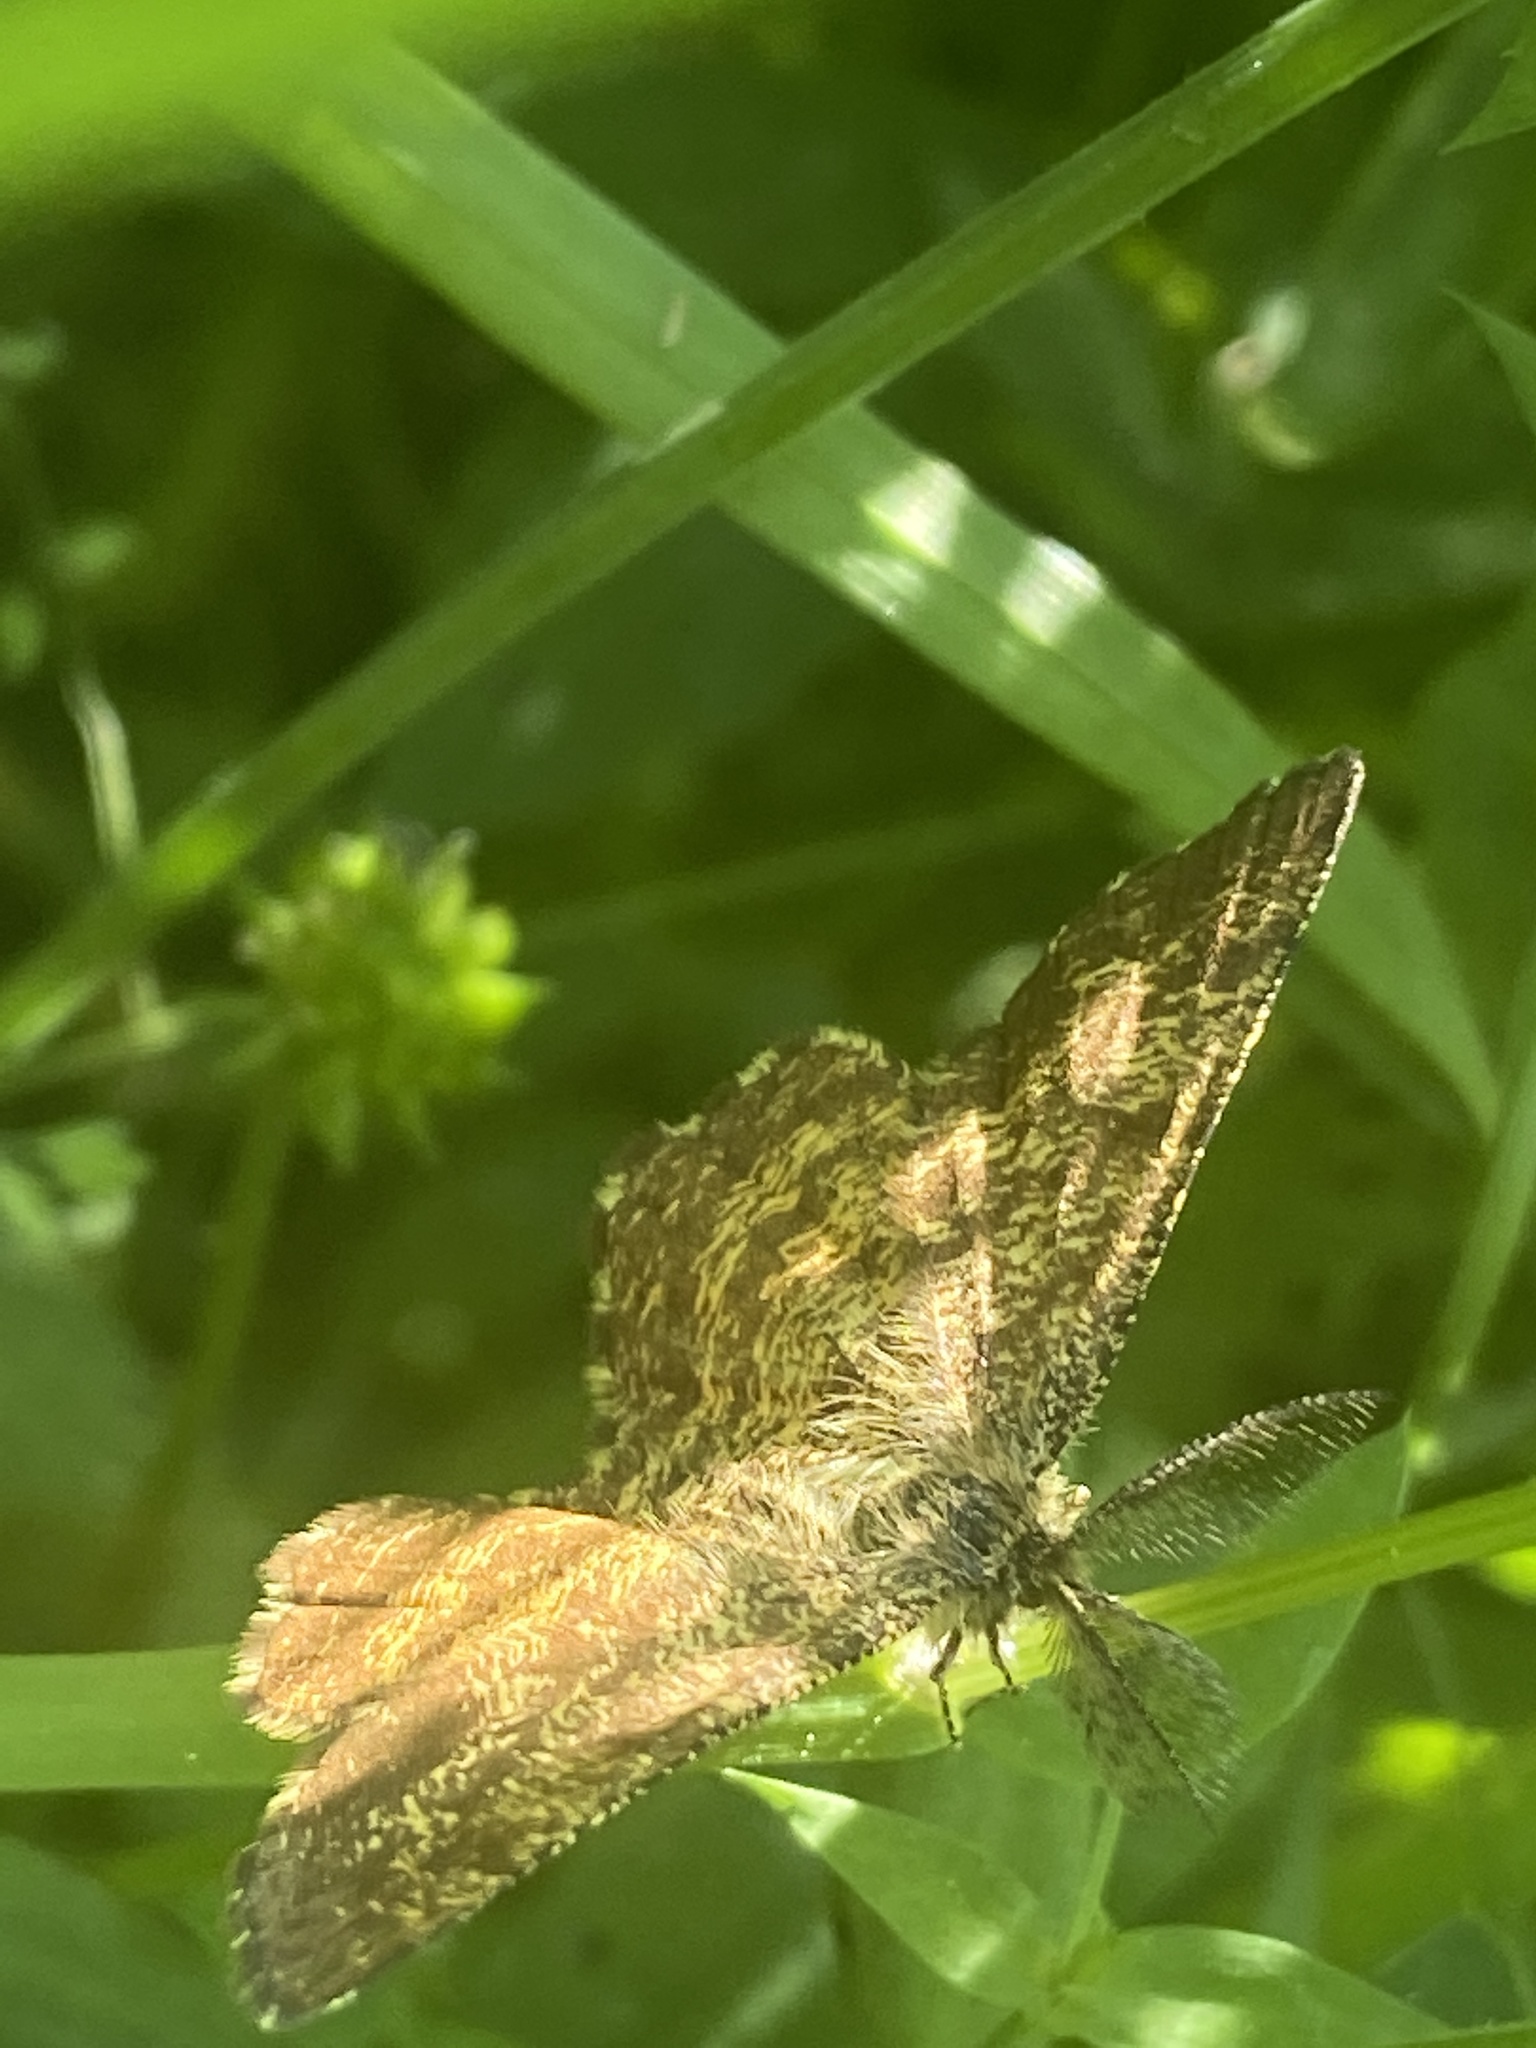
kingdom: Animalia
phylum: Arthropoda
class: Insecta
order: Lepidoptera
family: Geometridae
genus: Ematurga
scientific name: Ematurga atomaria
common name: Common heath
